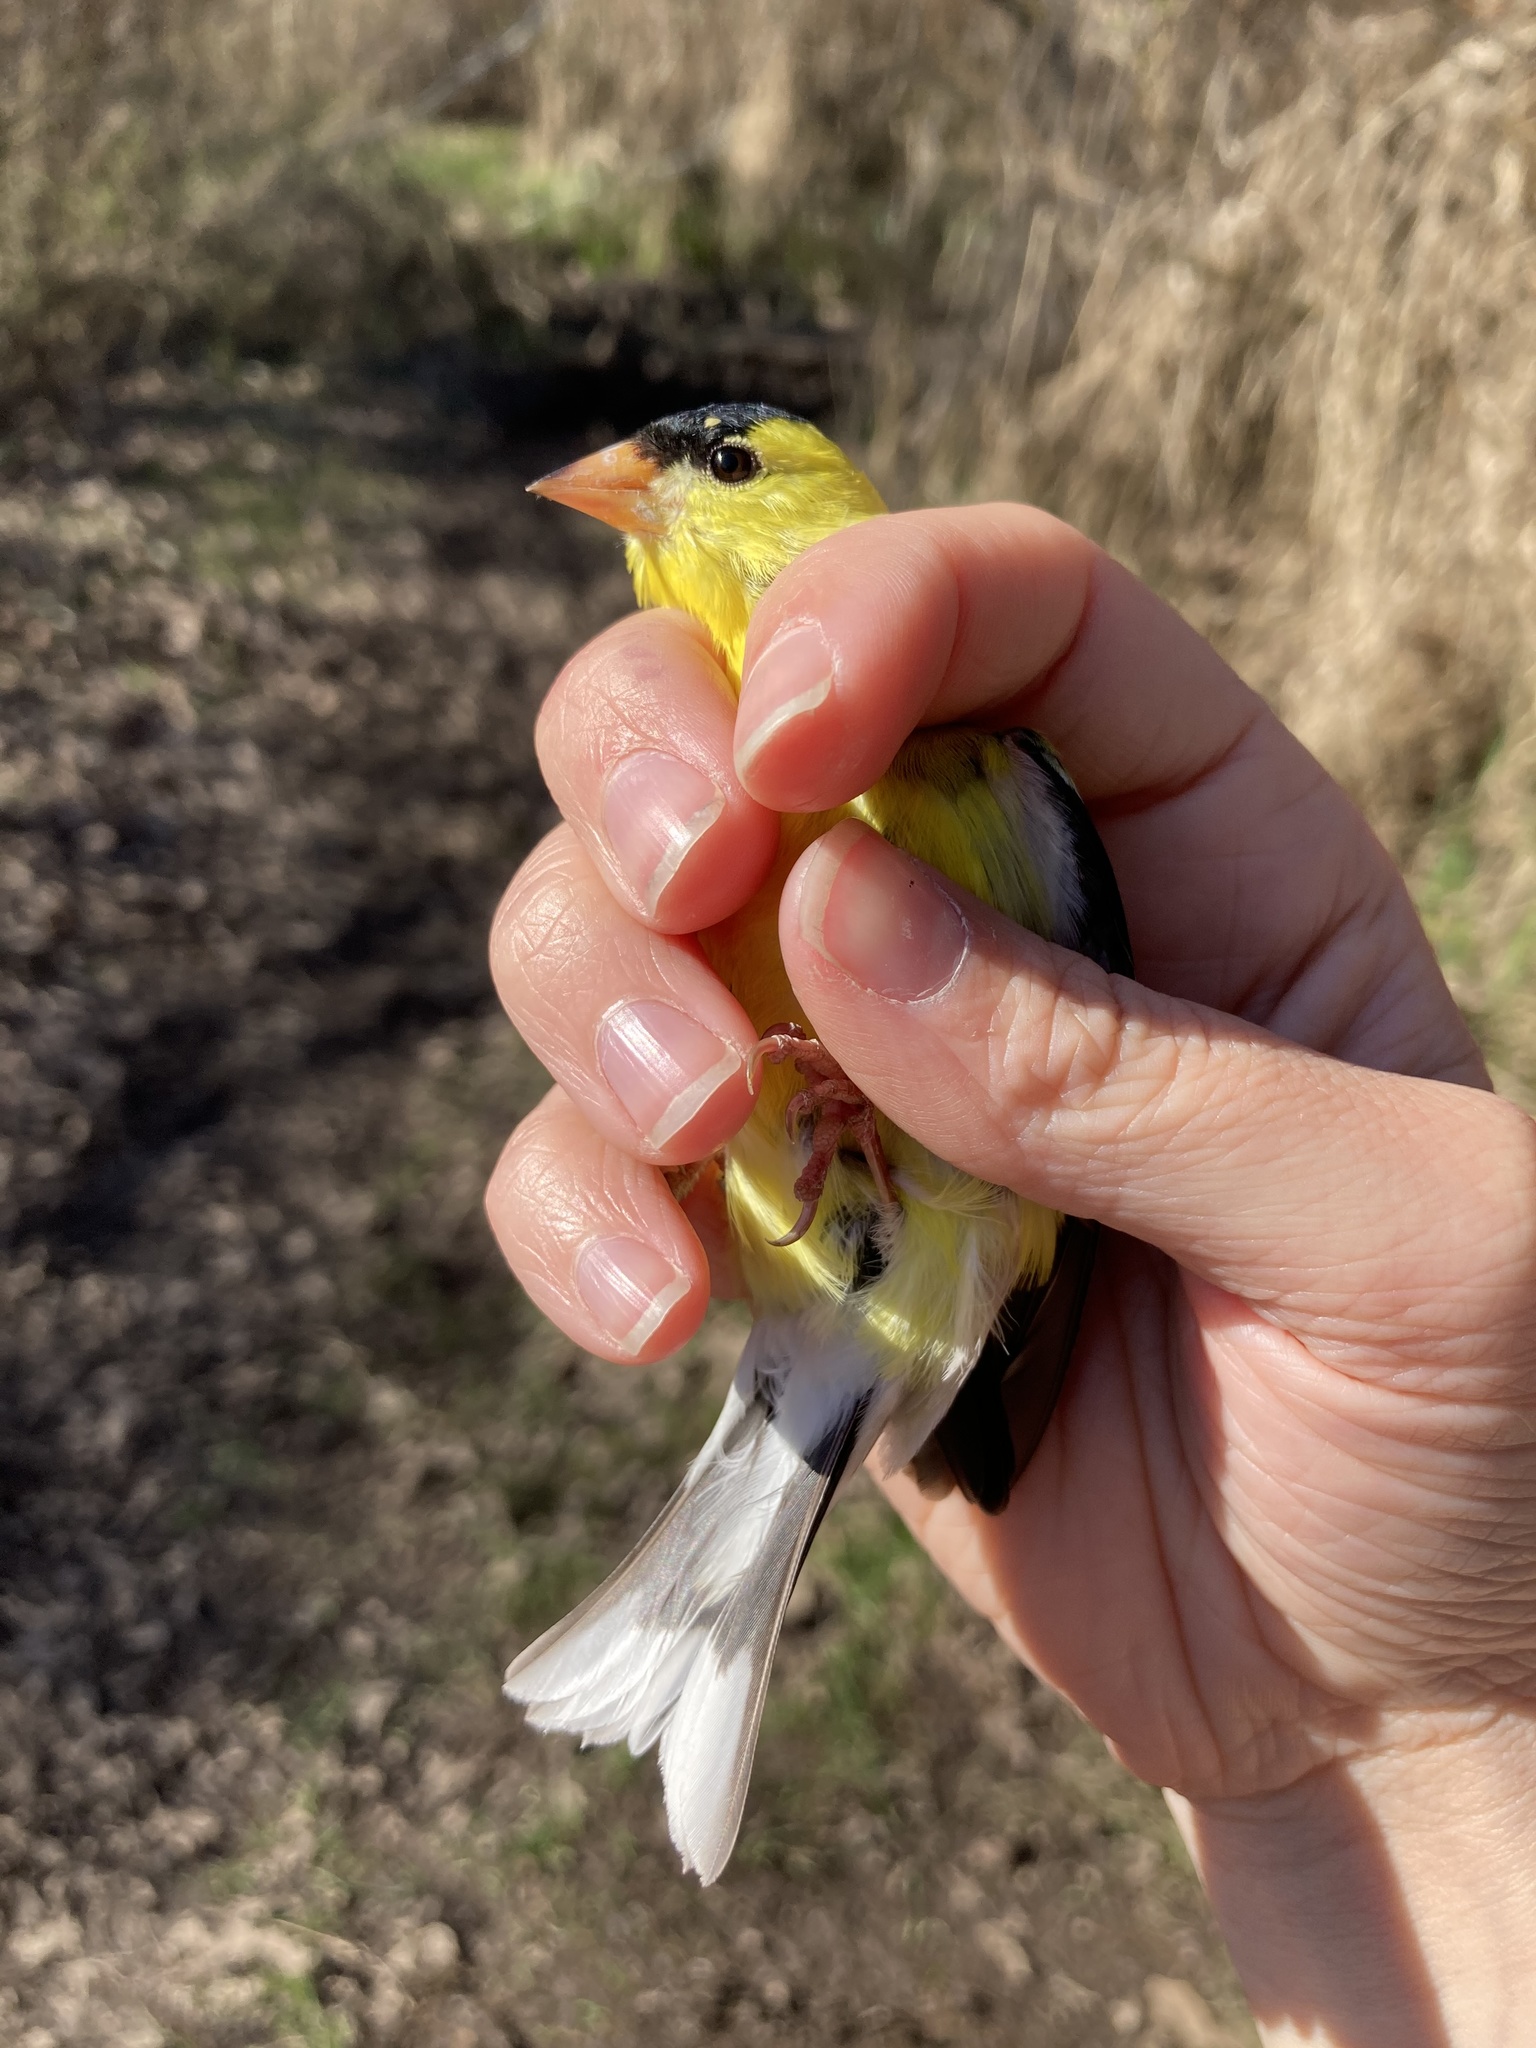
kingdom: Animalia
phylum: Chordata
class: Aves
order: Passeriformes
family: Fringillidae
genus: Spinus
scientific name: Spinus tristis
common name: American goldfinch
